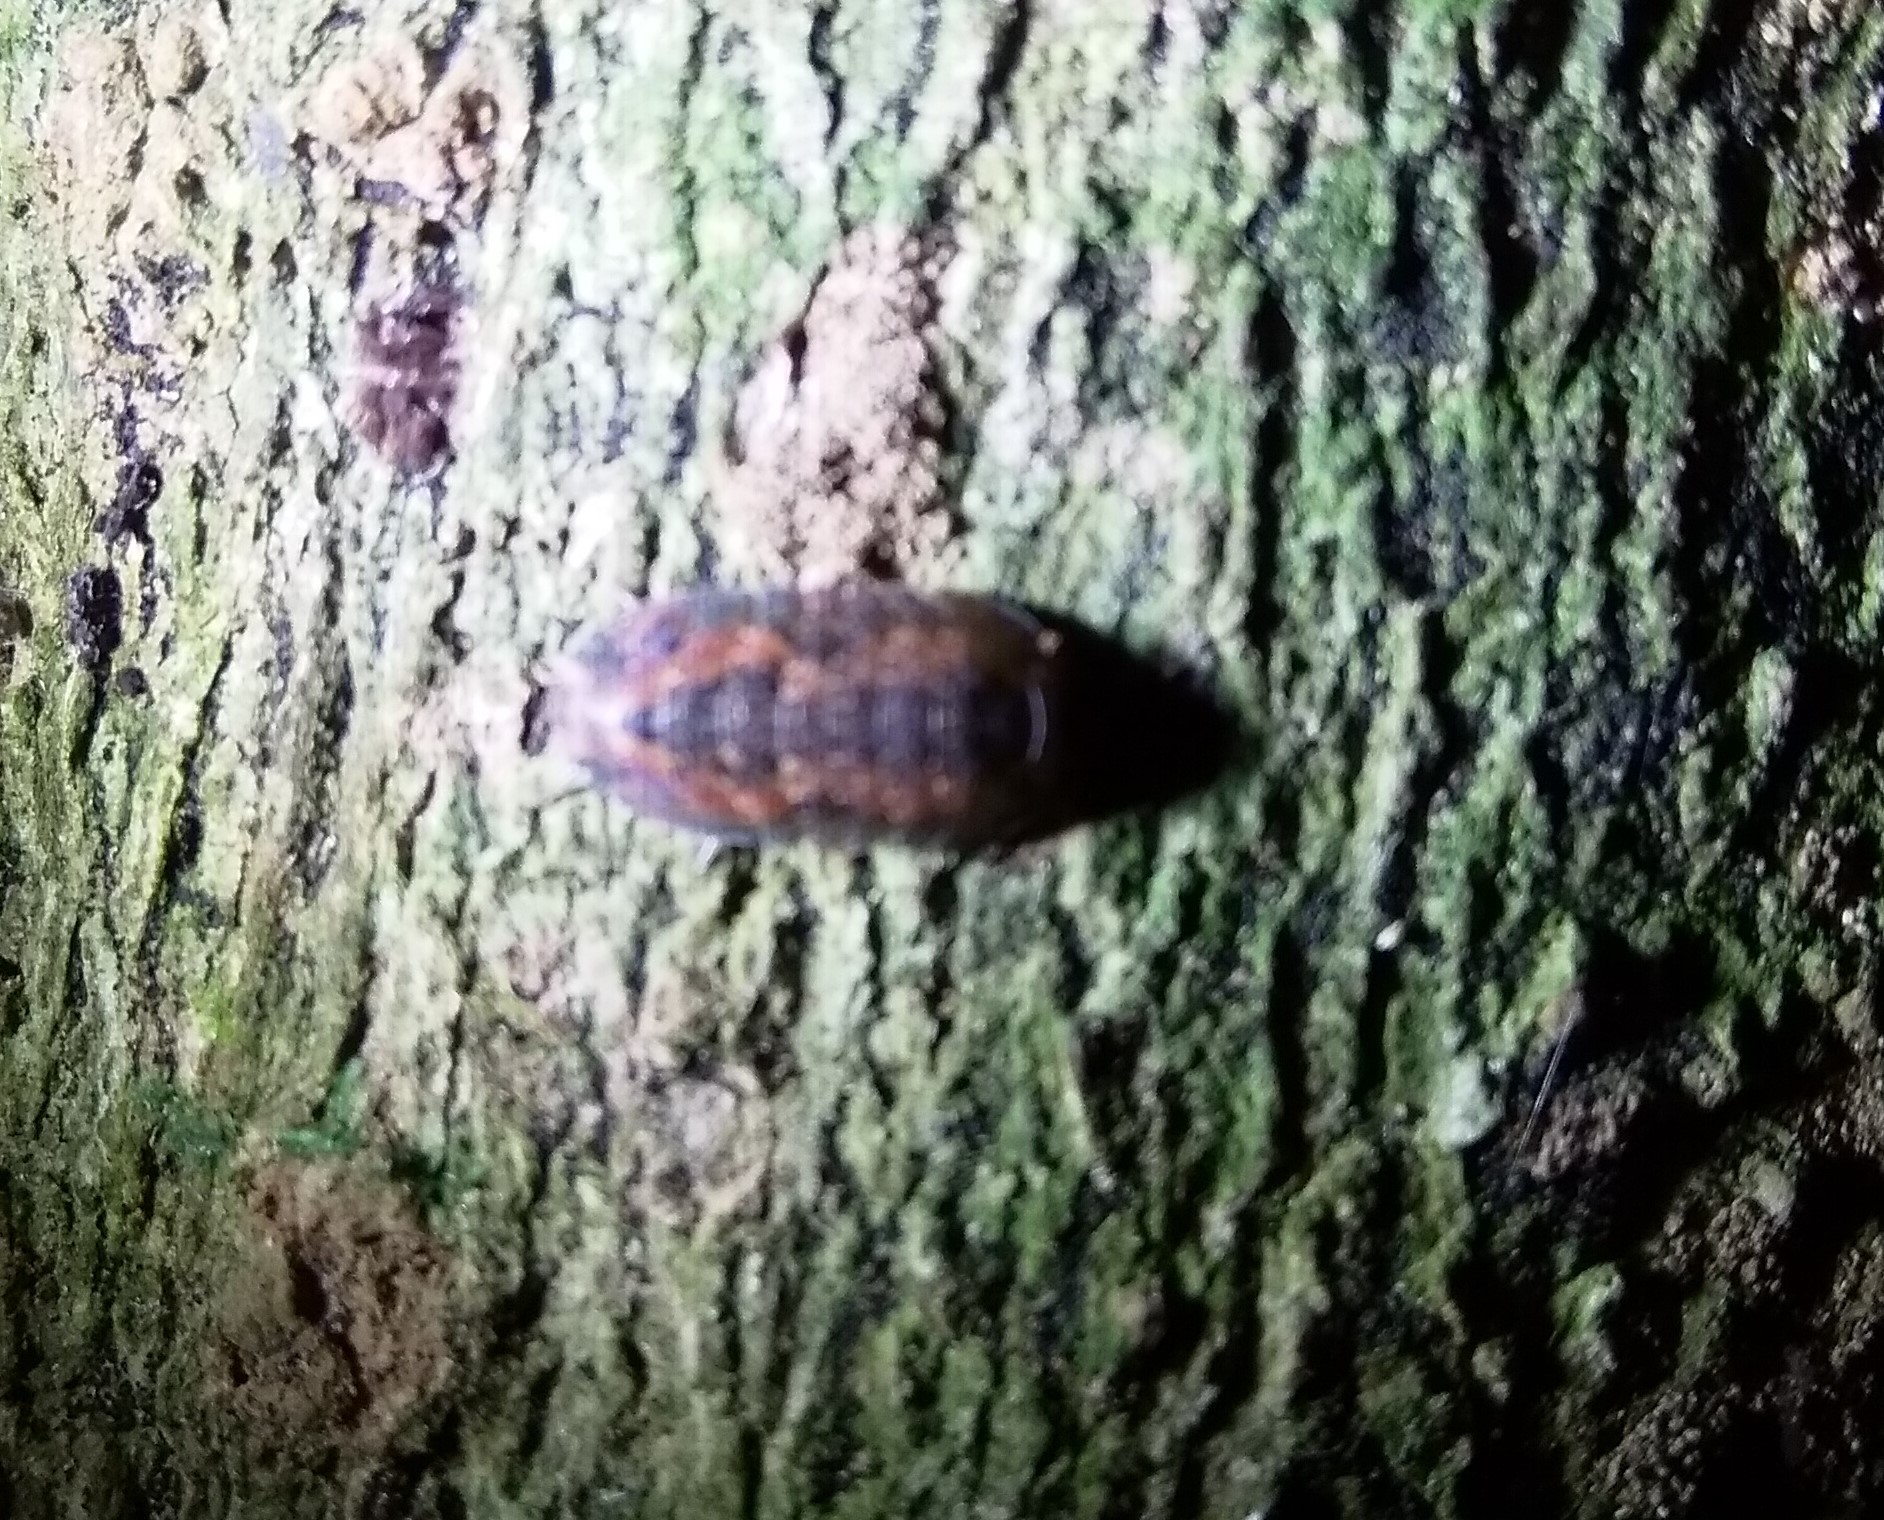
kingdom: Animalia
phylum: Arthropoda
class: Malacostraca
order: Isopoda
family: Armadillidae
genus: Cubaris
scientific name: Cubaris tarangensis
